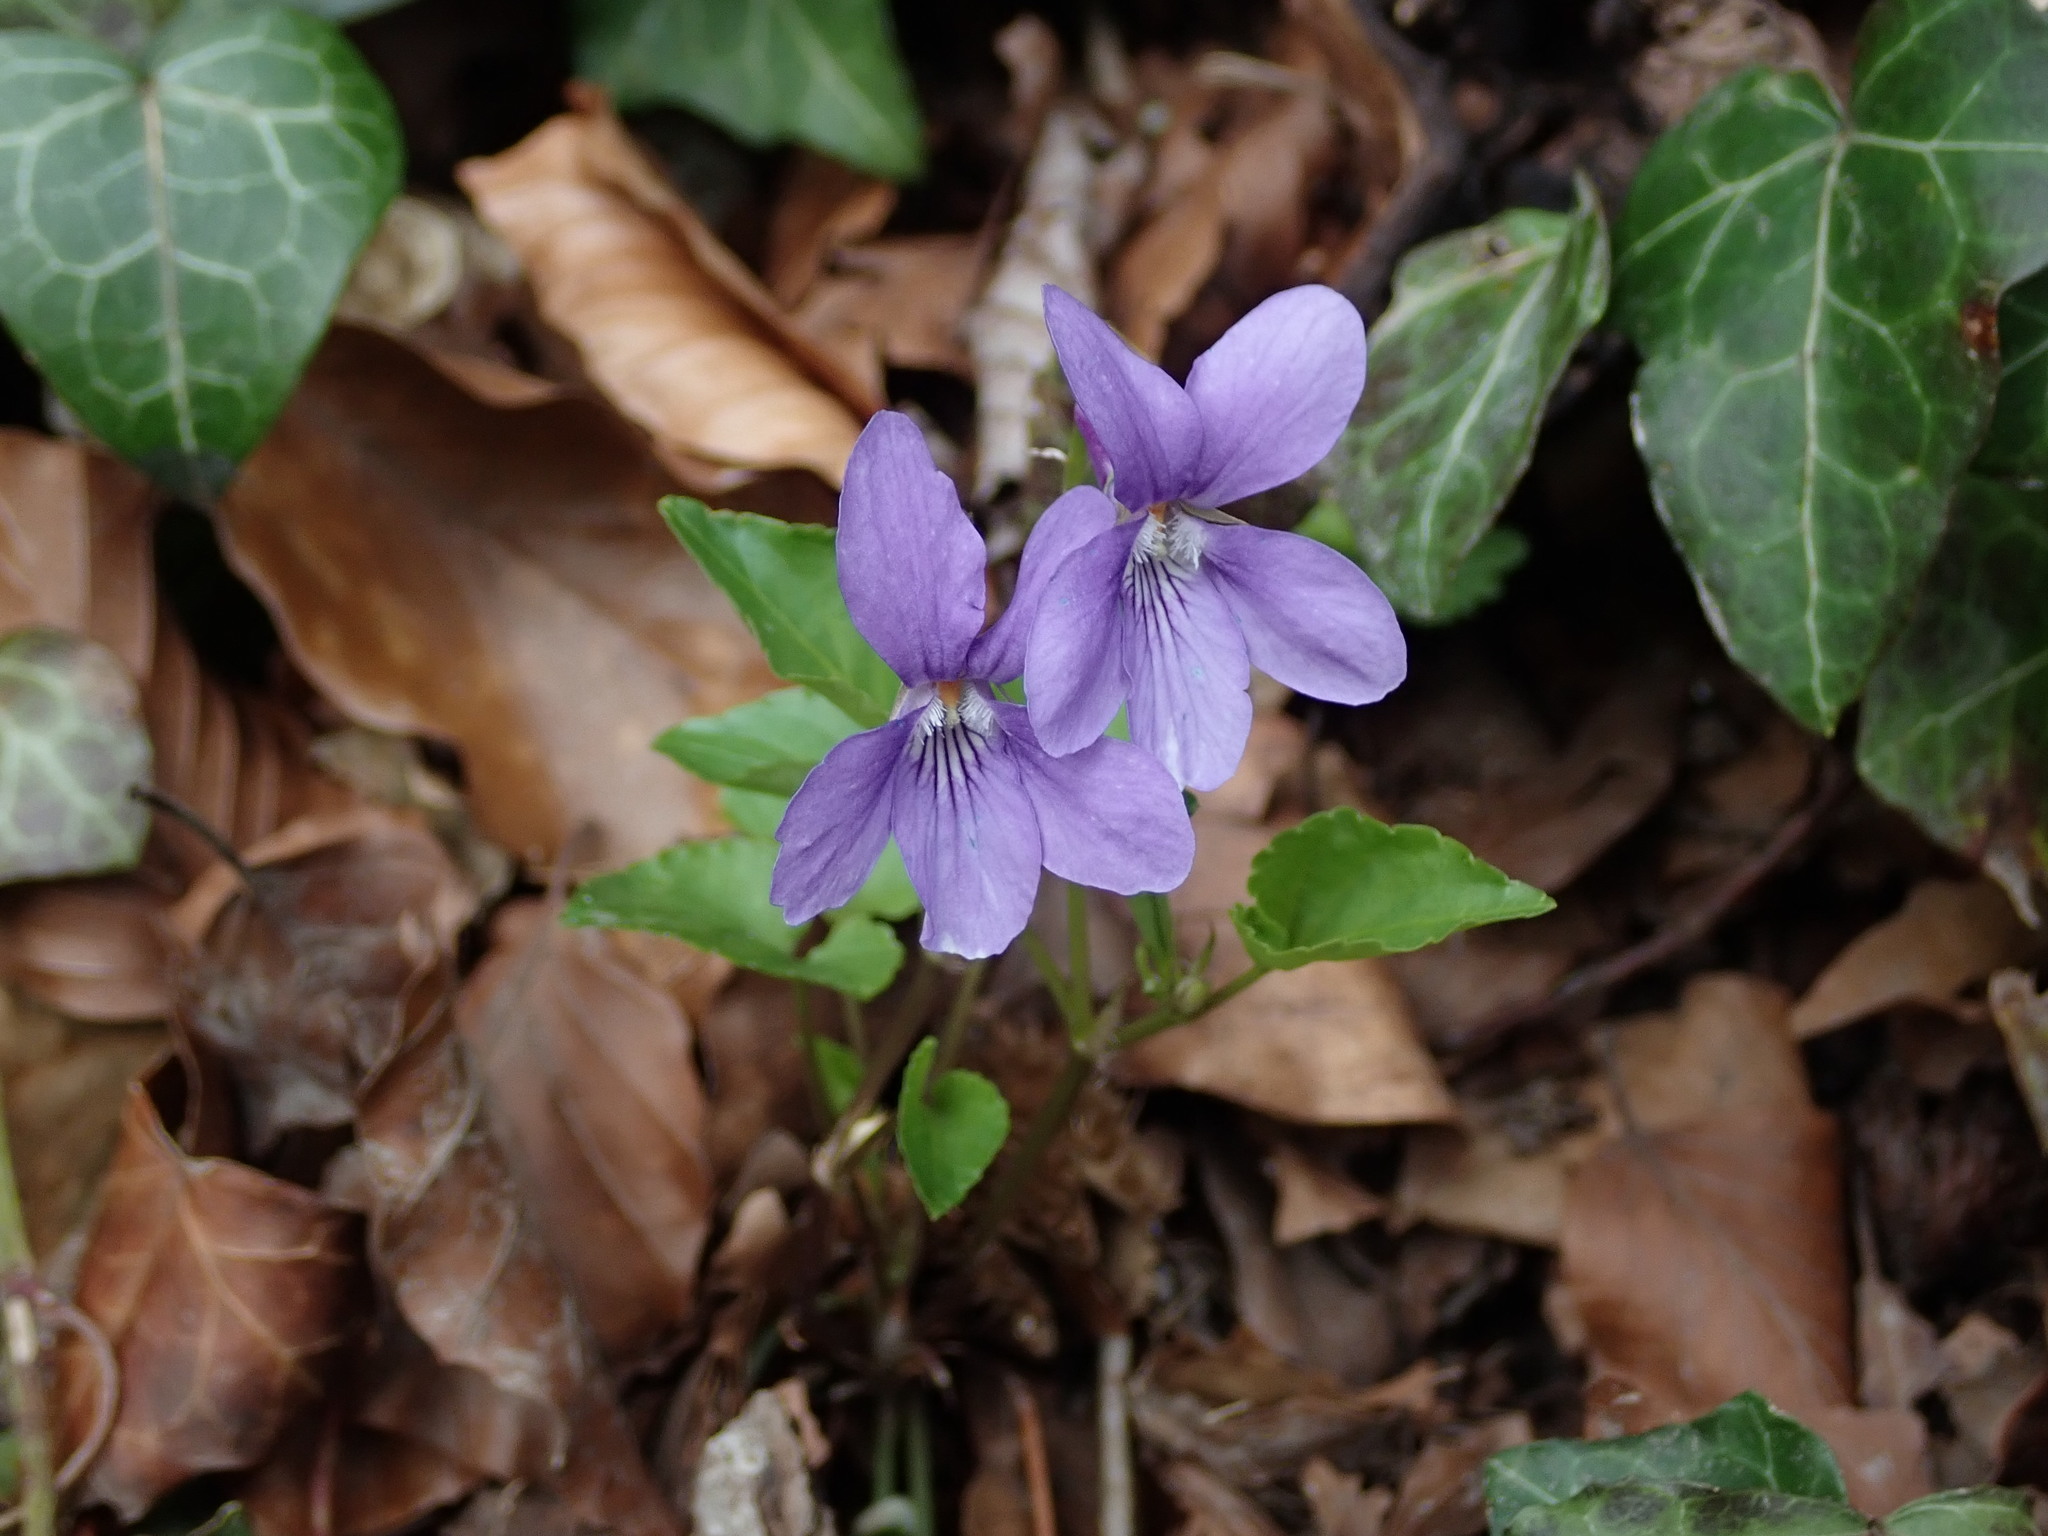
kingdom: Plantae
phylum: Tracheophyta
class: Magnoliopsida
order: Malpighiales
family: Violaceae
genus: Viola
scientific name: Viola reichenbachiana
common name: Early dog-violet
